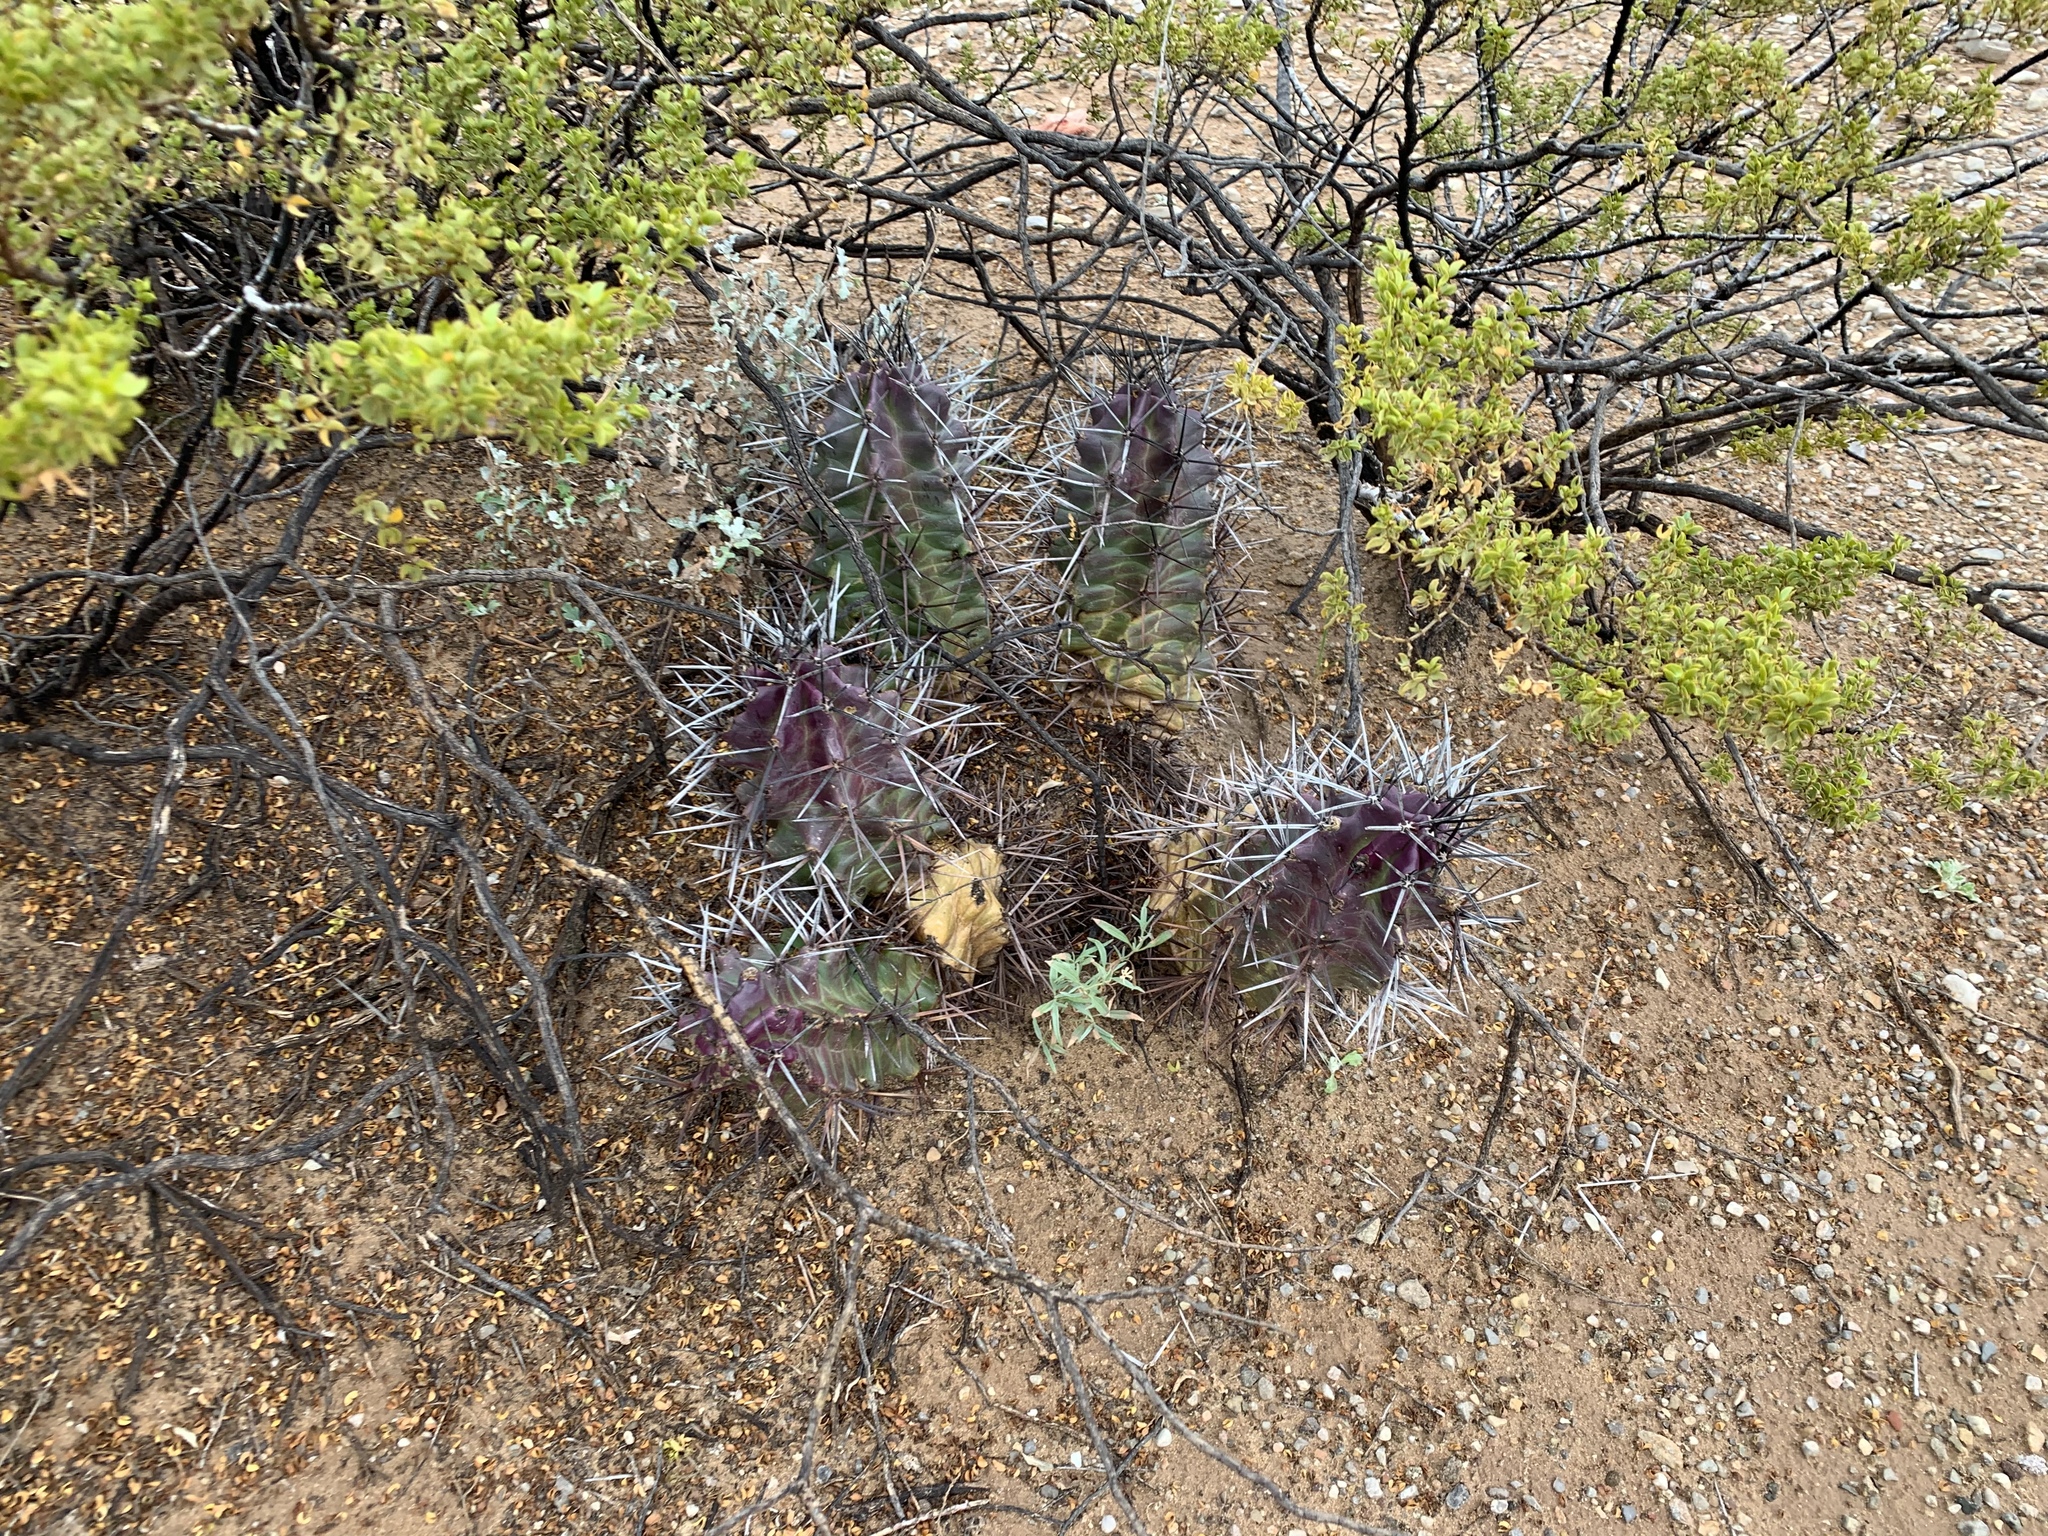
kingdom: Plantae
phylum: Tracheophyta
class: Magnoliopsida
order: Caryophyllales
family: Cactaceae
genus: Echinocereus
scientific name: Echinocereus triglochidiatus
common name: Claretcup hedgehog
